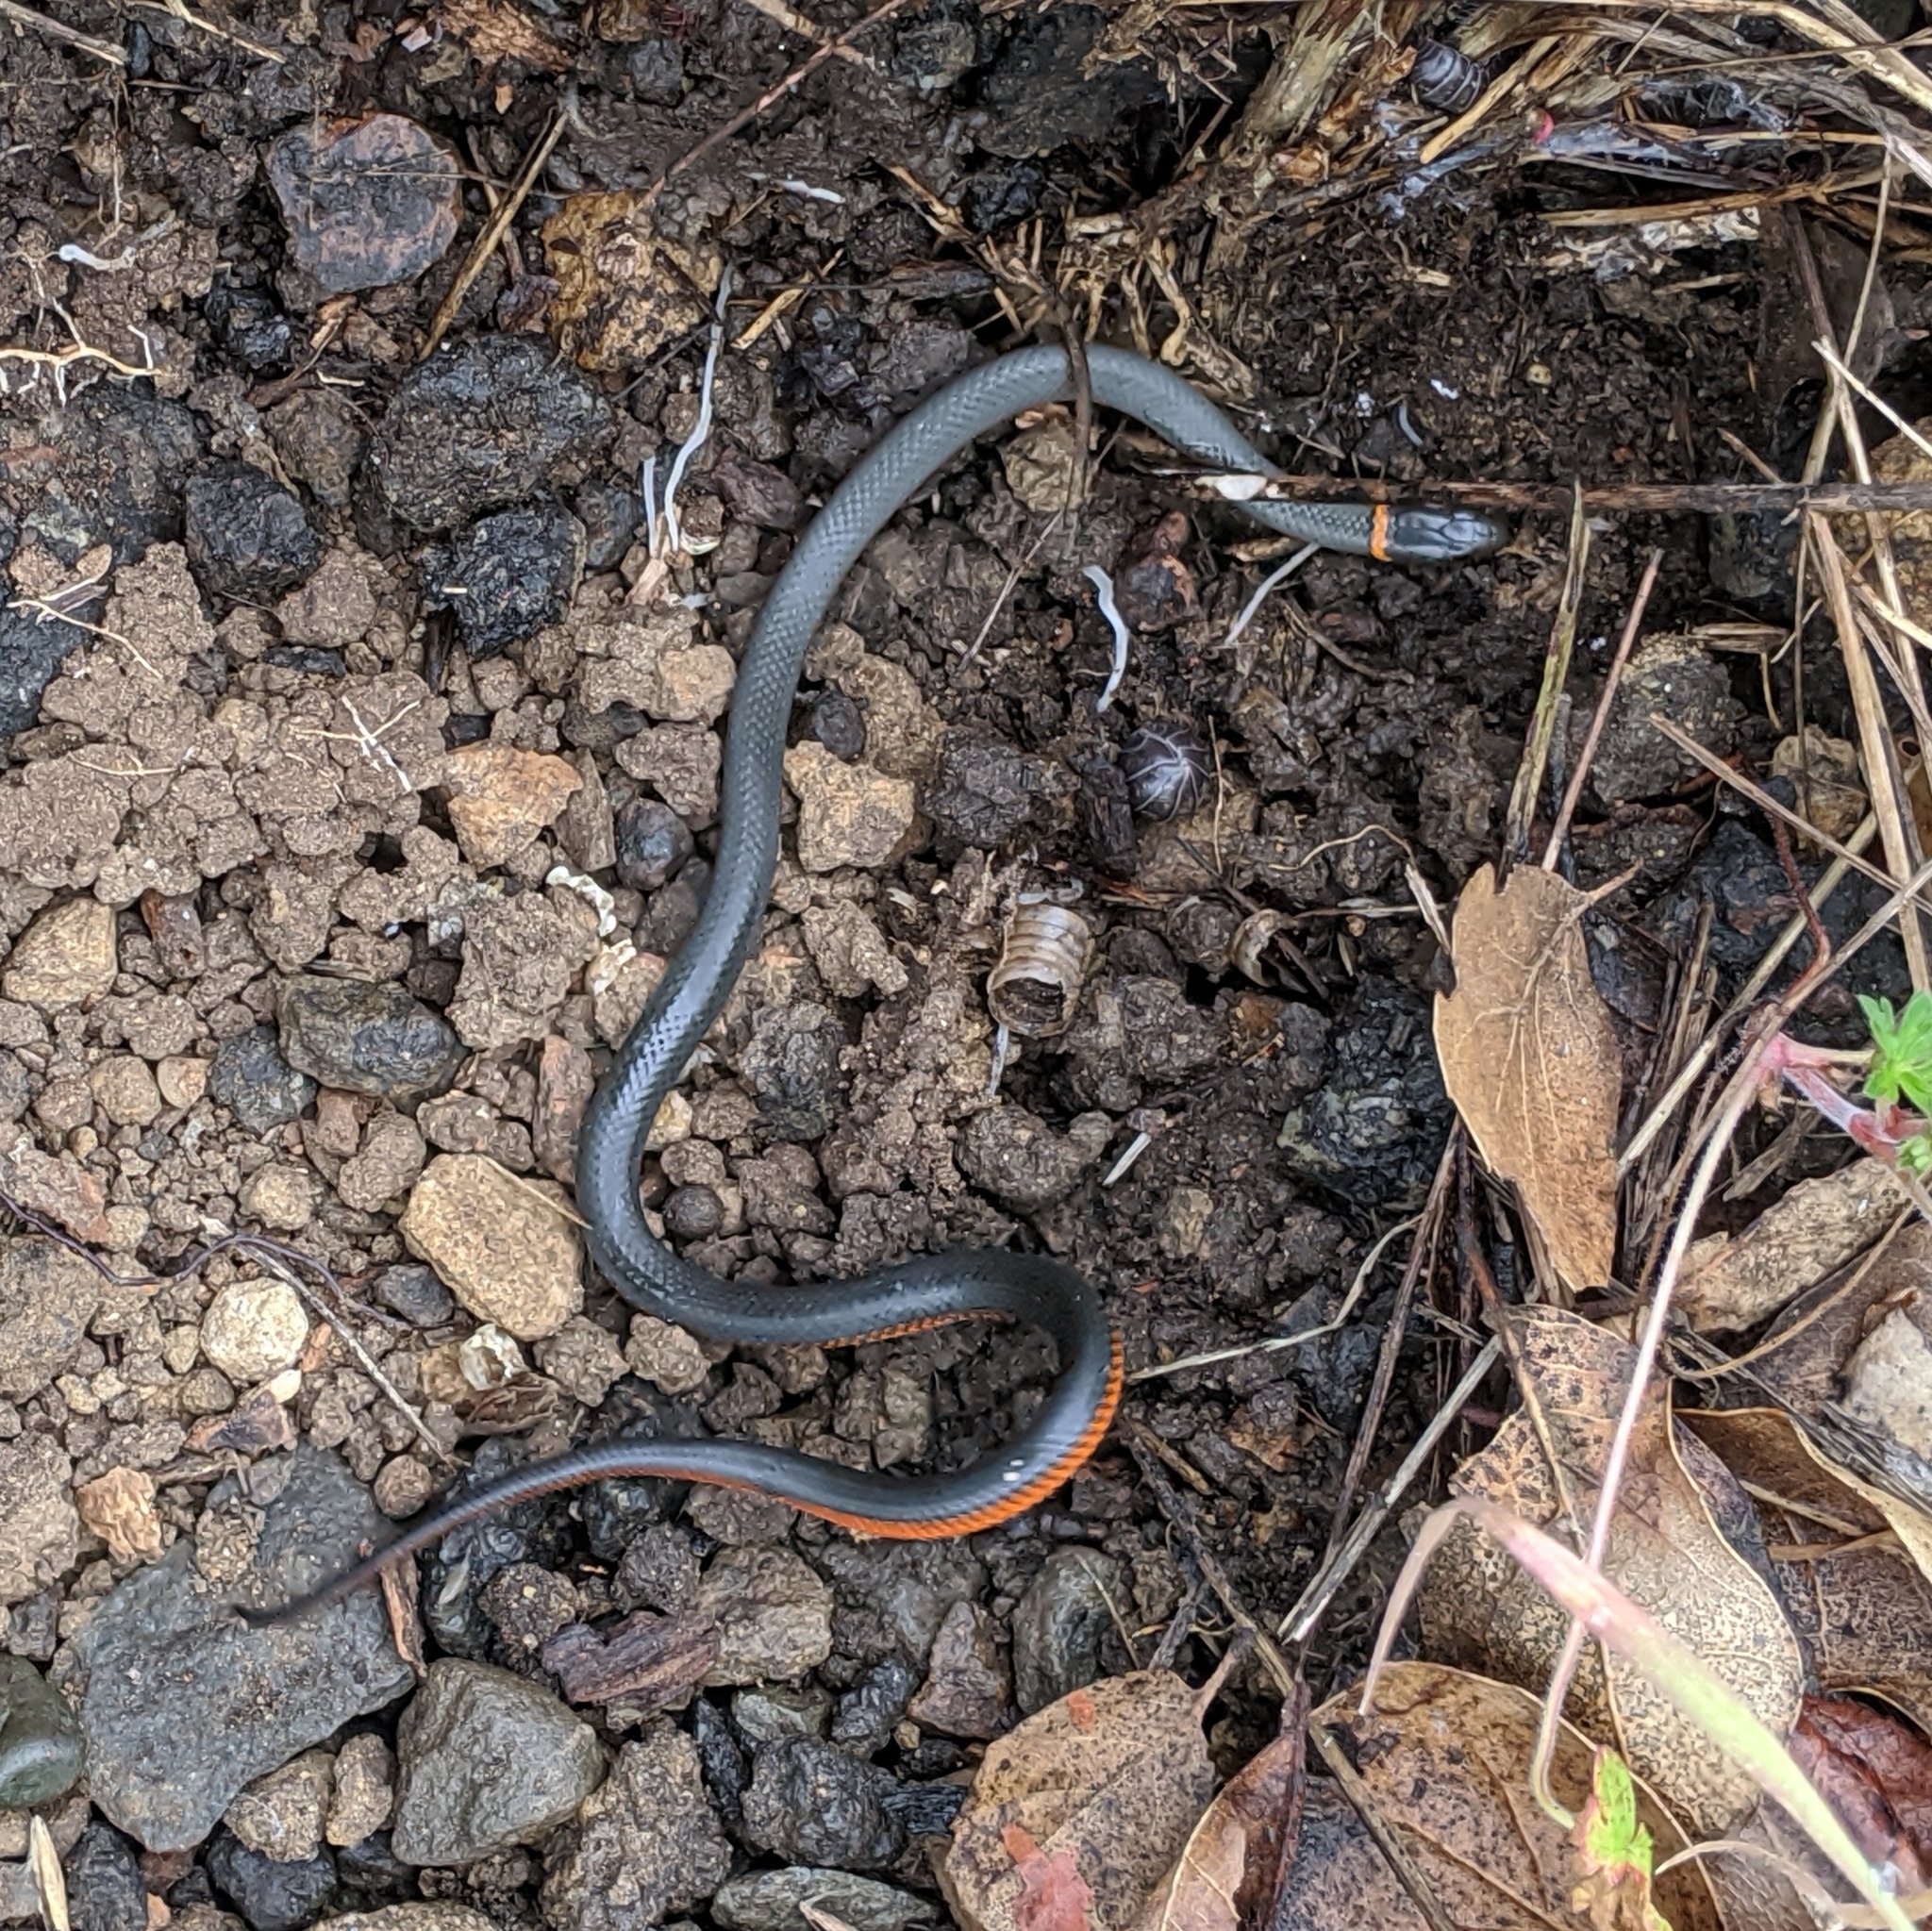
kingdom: Animalia
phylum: Chordata
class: Squamata
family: Colubridae
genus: Diadophis
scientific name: Diadophis punctatus
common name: Ringneck snake
